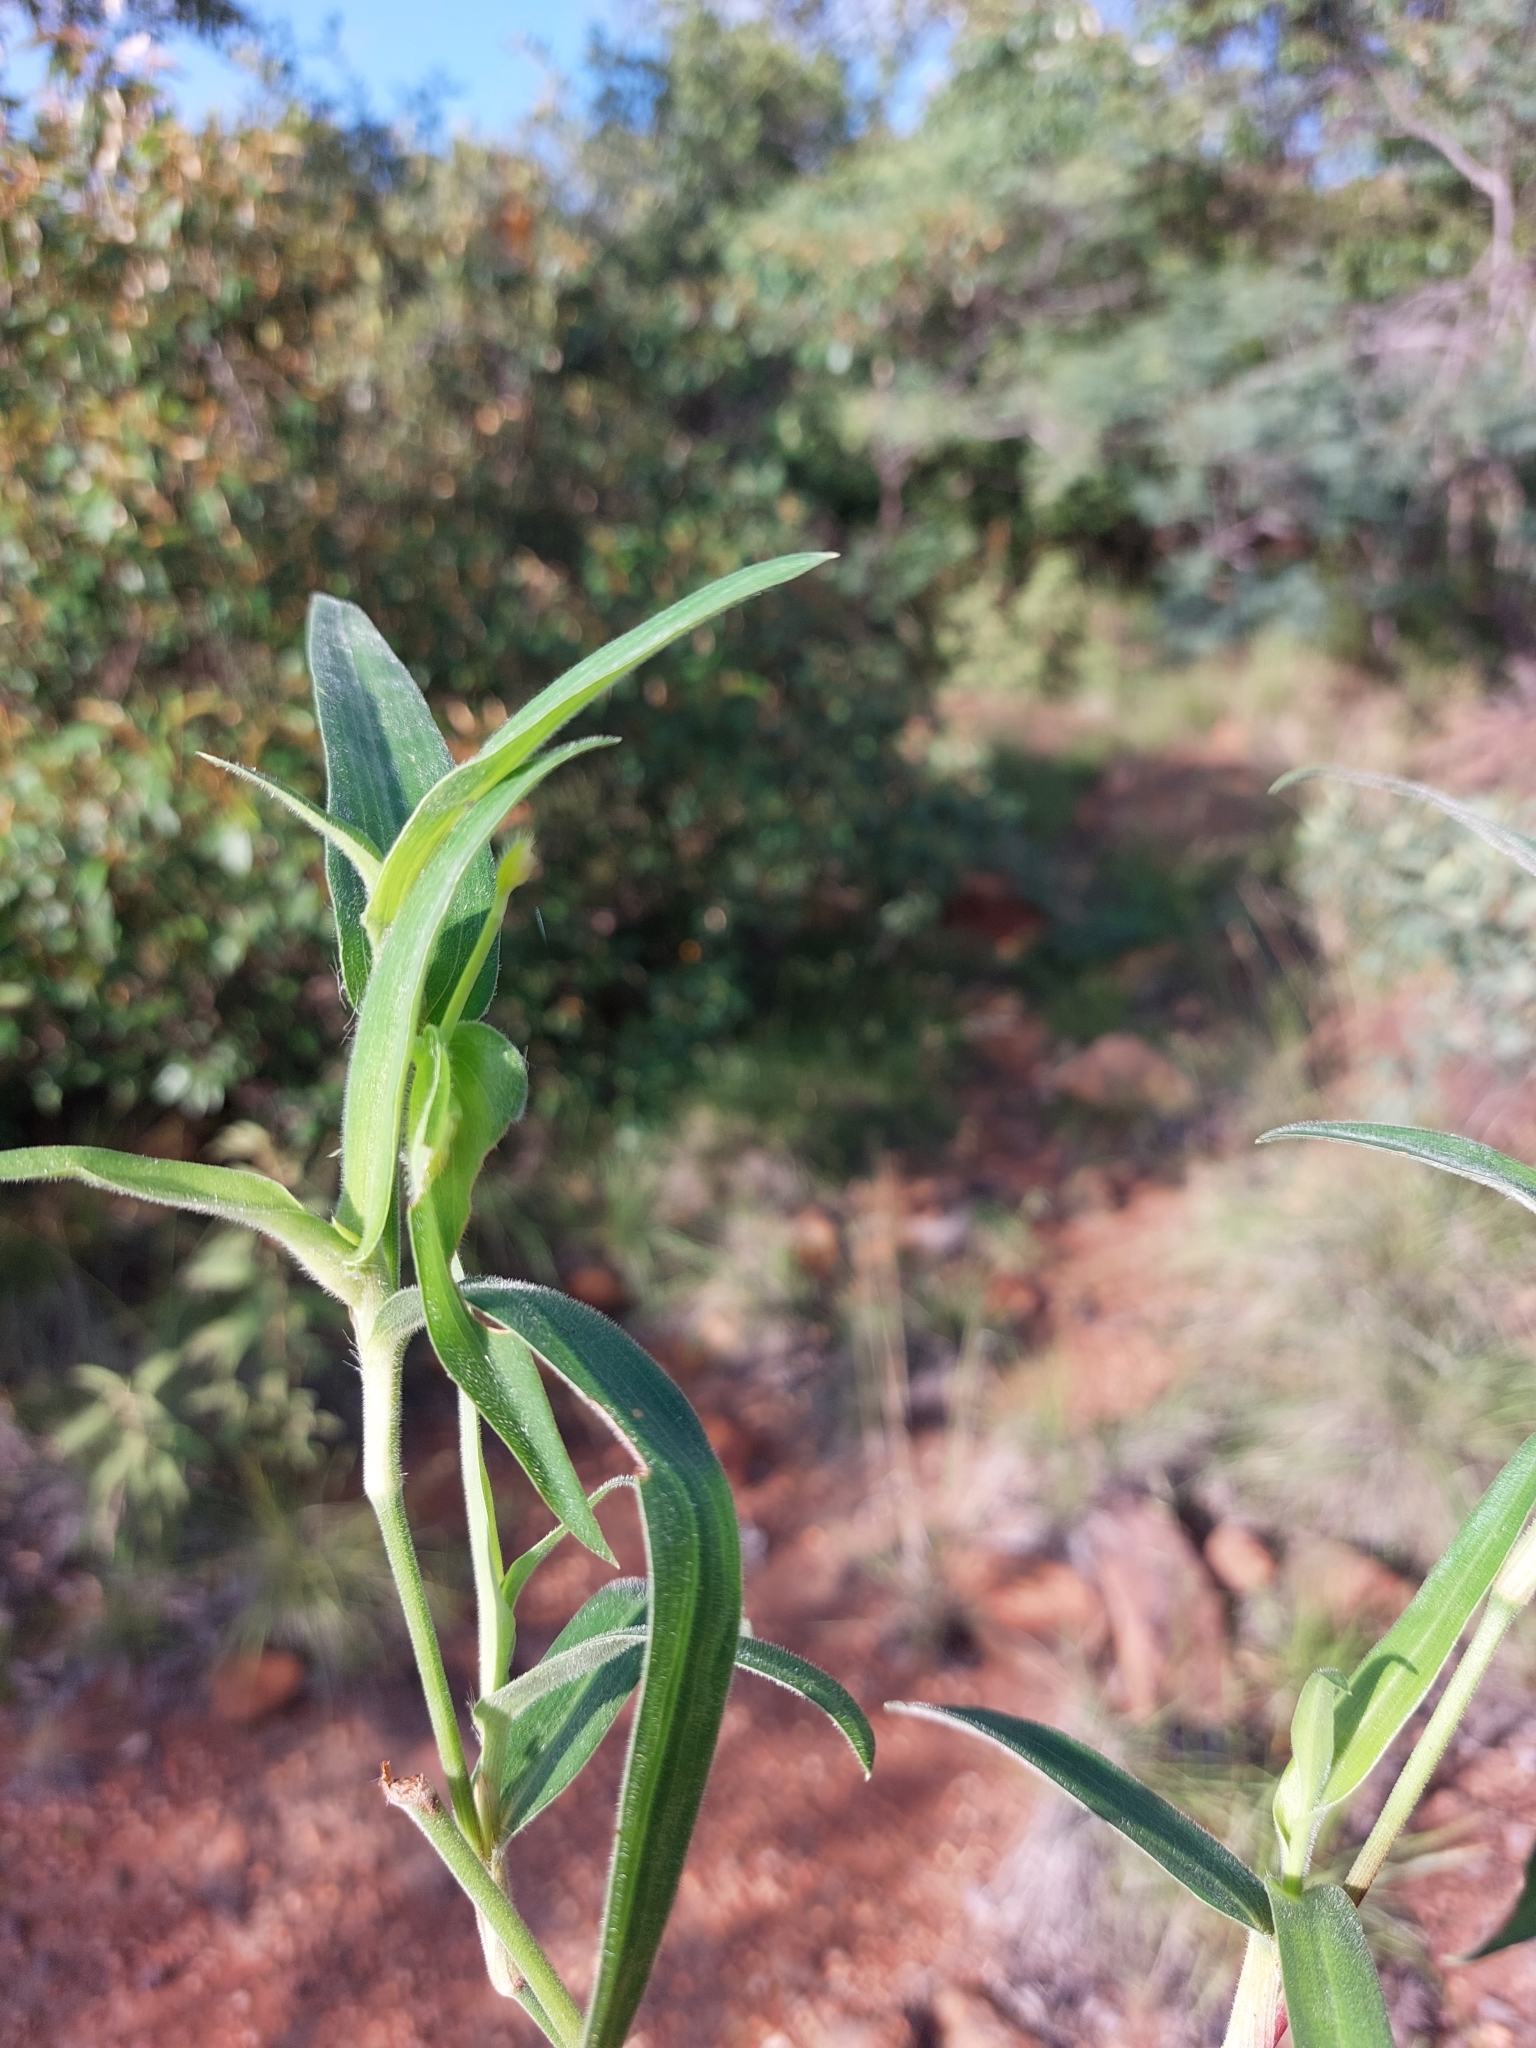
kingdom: Plantae
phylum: Tracheophyta
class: Liliopsida
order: Commelinales
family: Commelinaceae
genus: Commelina
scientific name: Commelina africana
